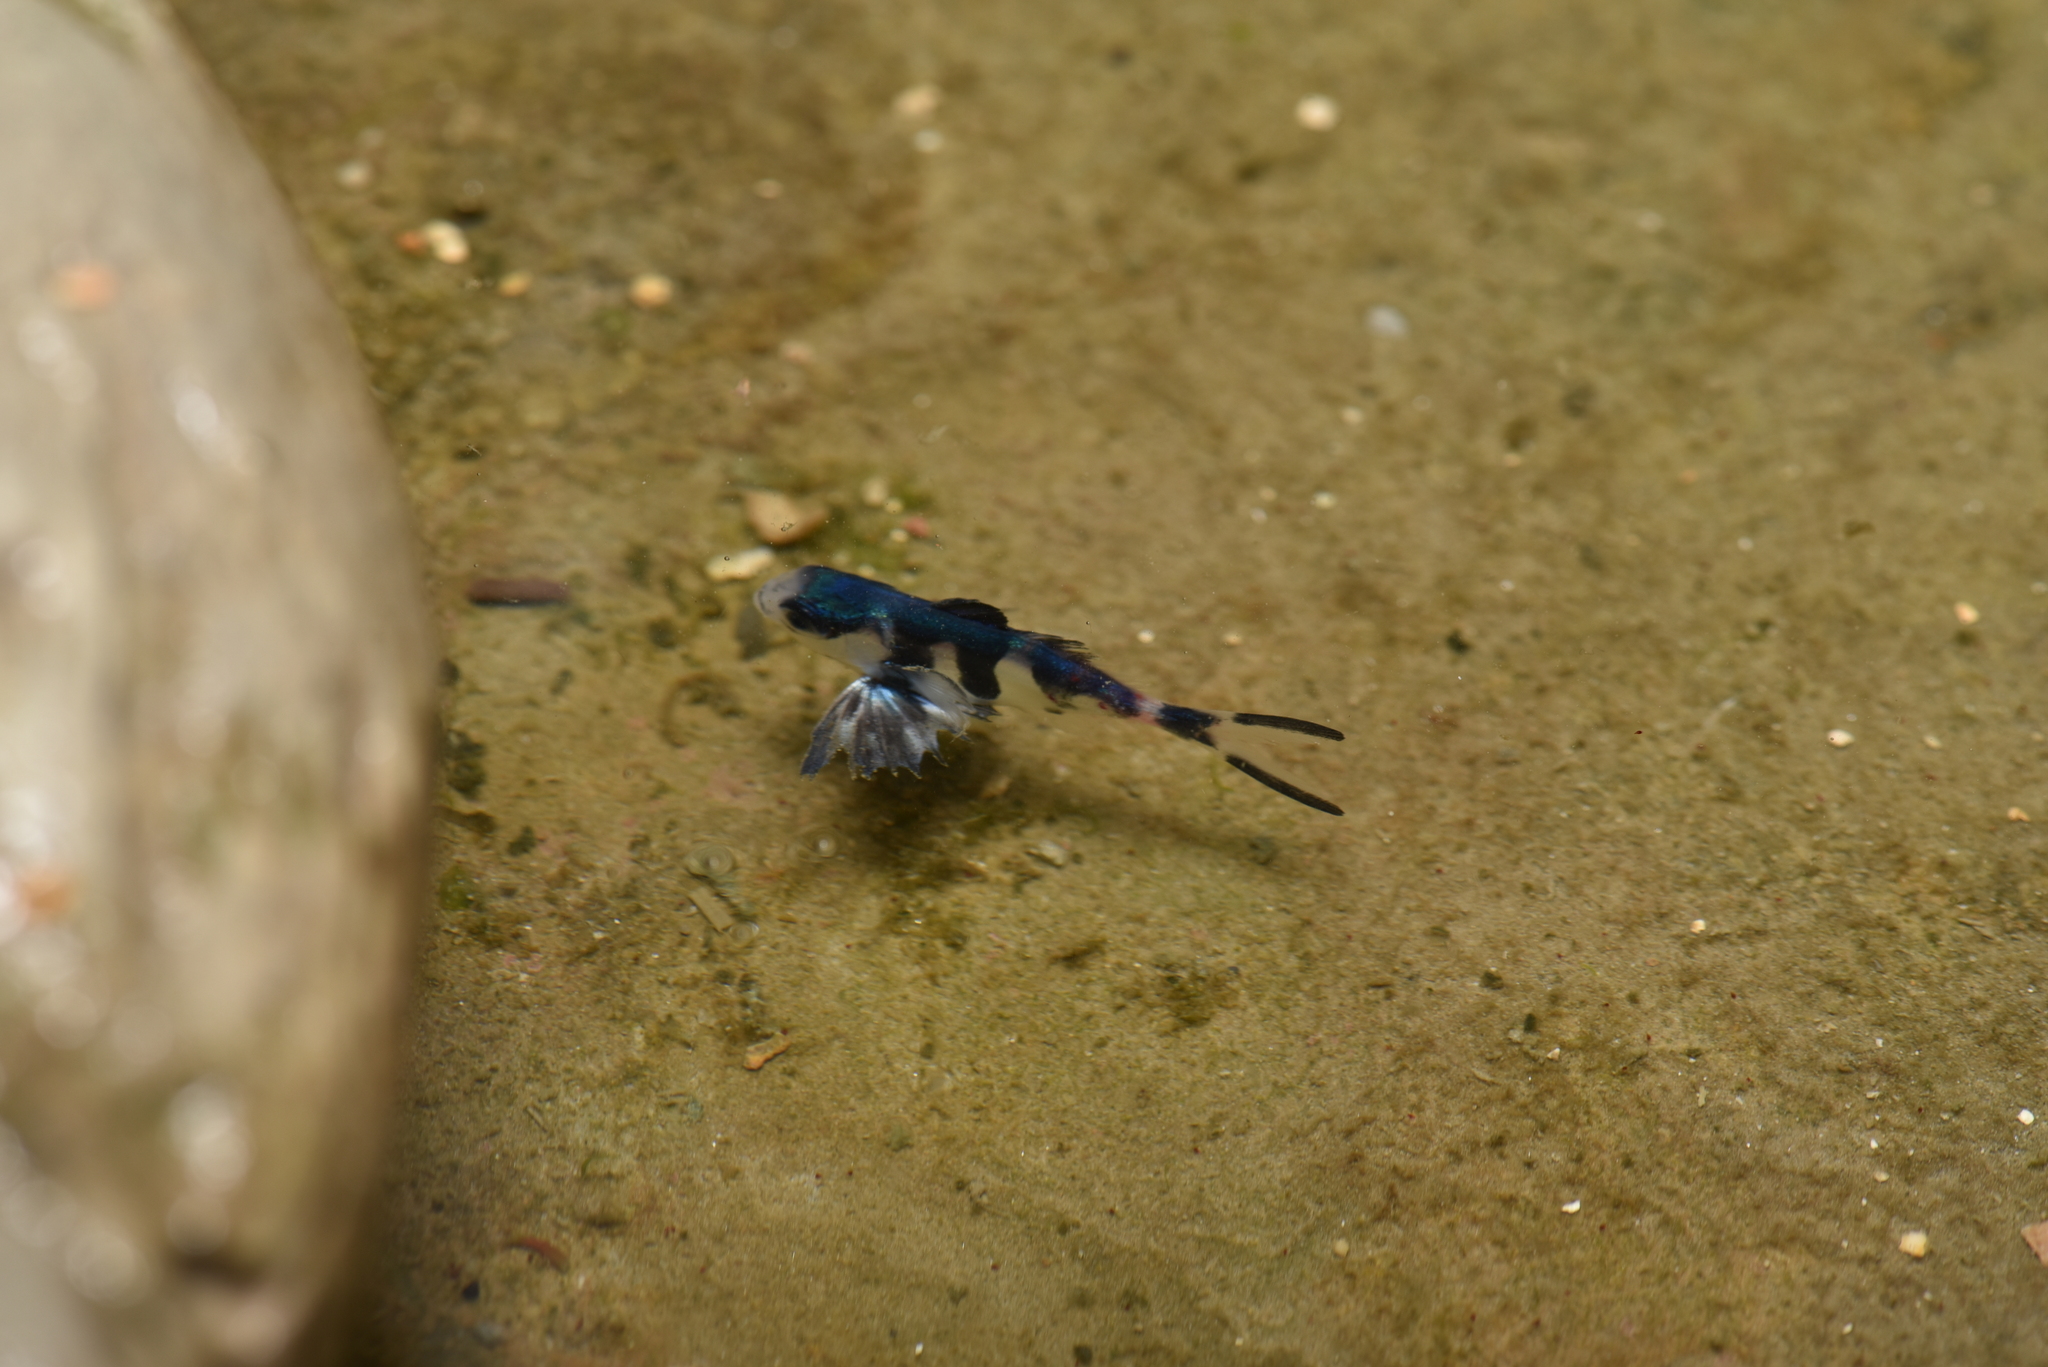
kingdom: Animalia
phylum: Chordata
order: Perciformes
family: Nomeidae
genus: Nomeus
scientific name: Nomeus gronovii
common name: Man-of-war fish
